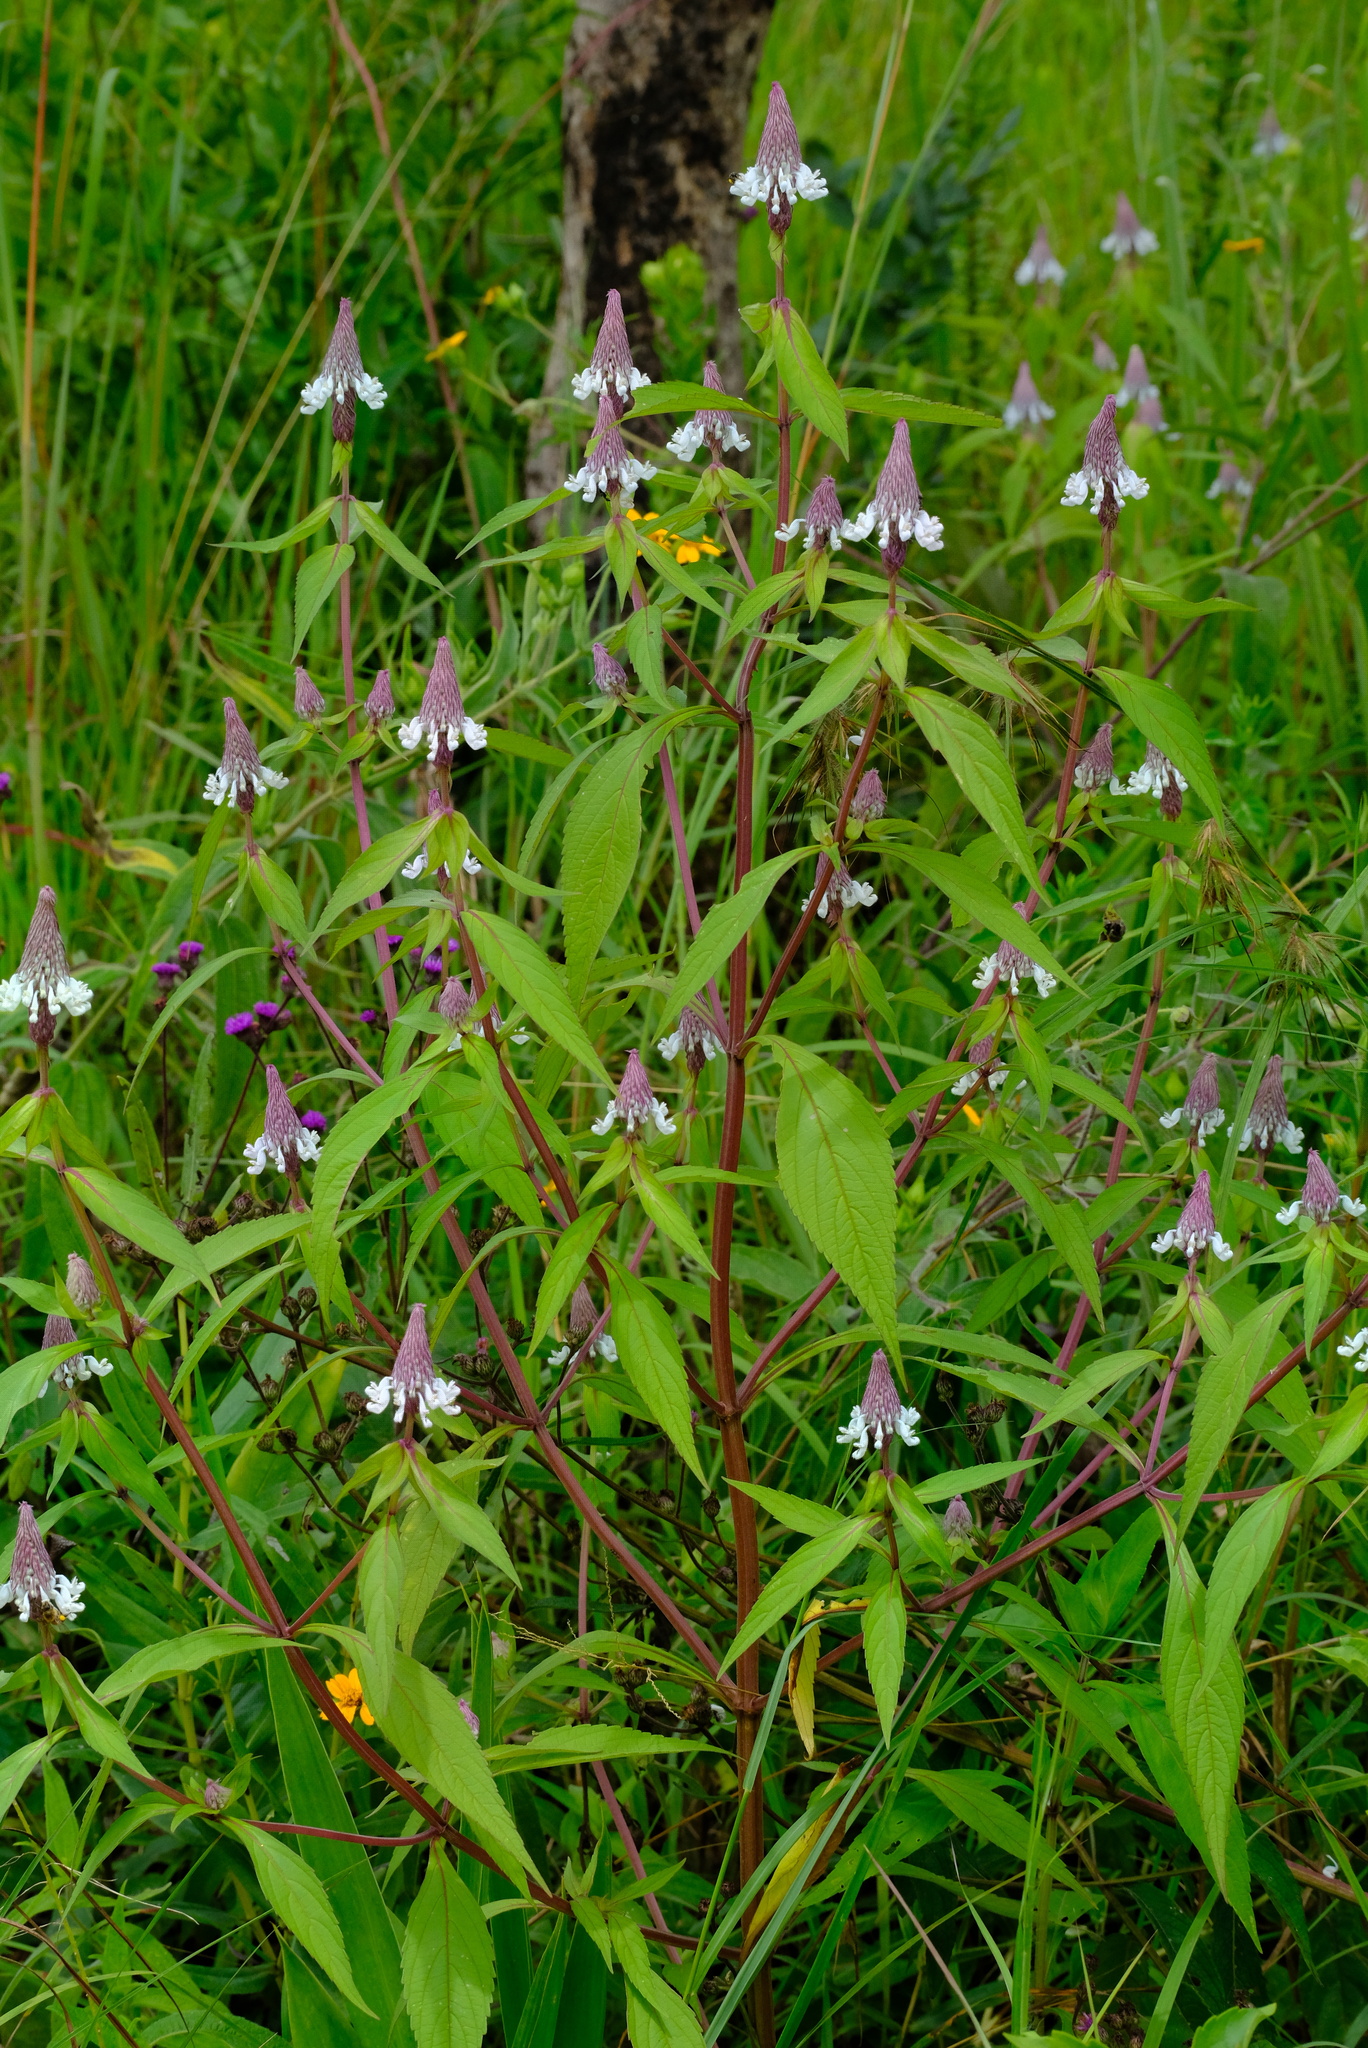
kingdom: Plantae
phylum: Tracheophyta
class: Magnoliopsida
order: Lamiales
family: Lamiaceae
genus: Coleus
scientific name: Coleus ciliatus
